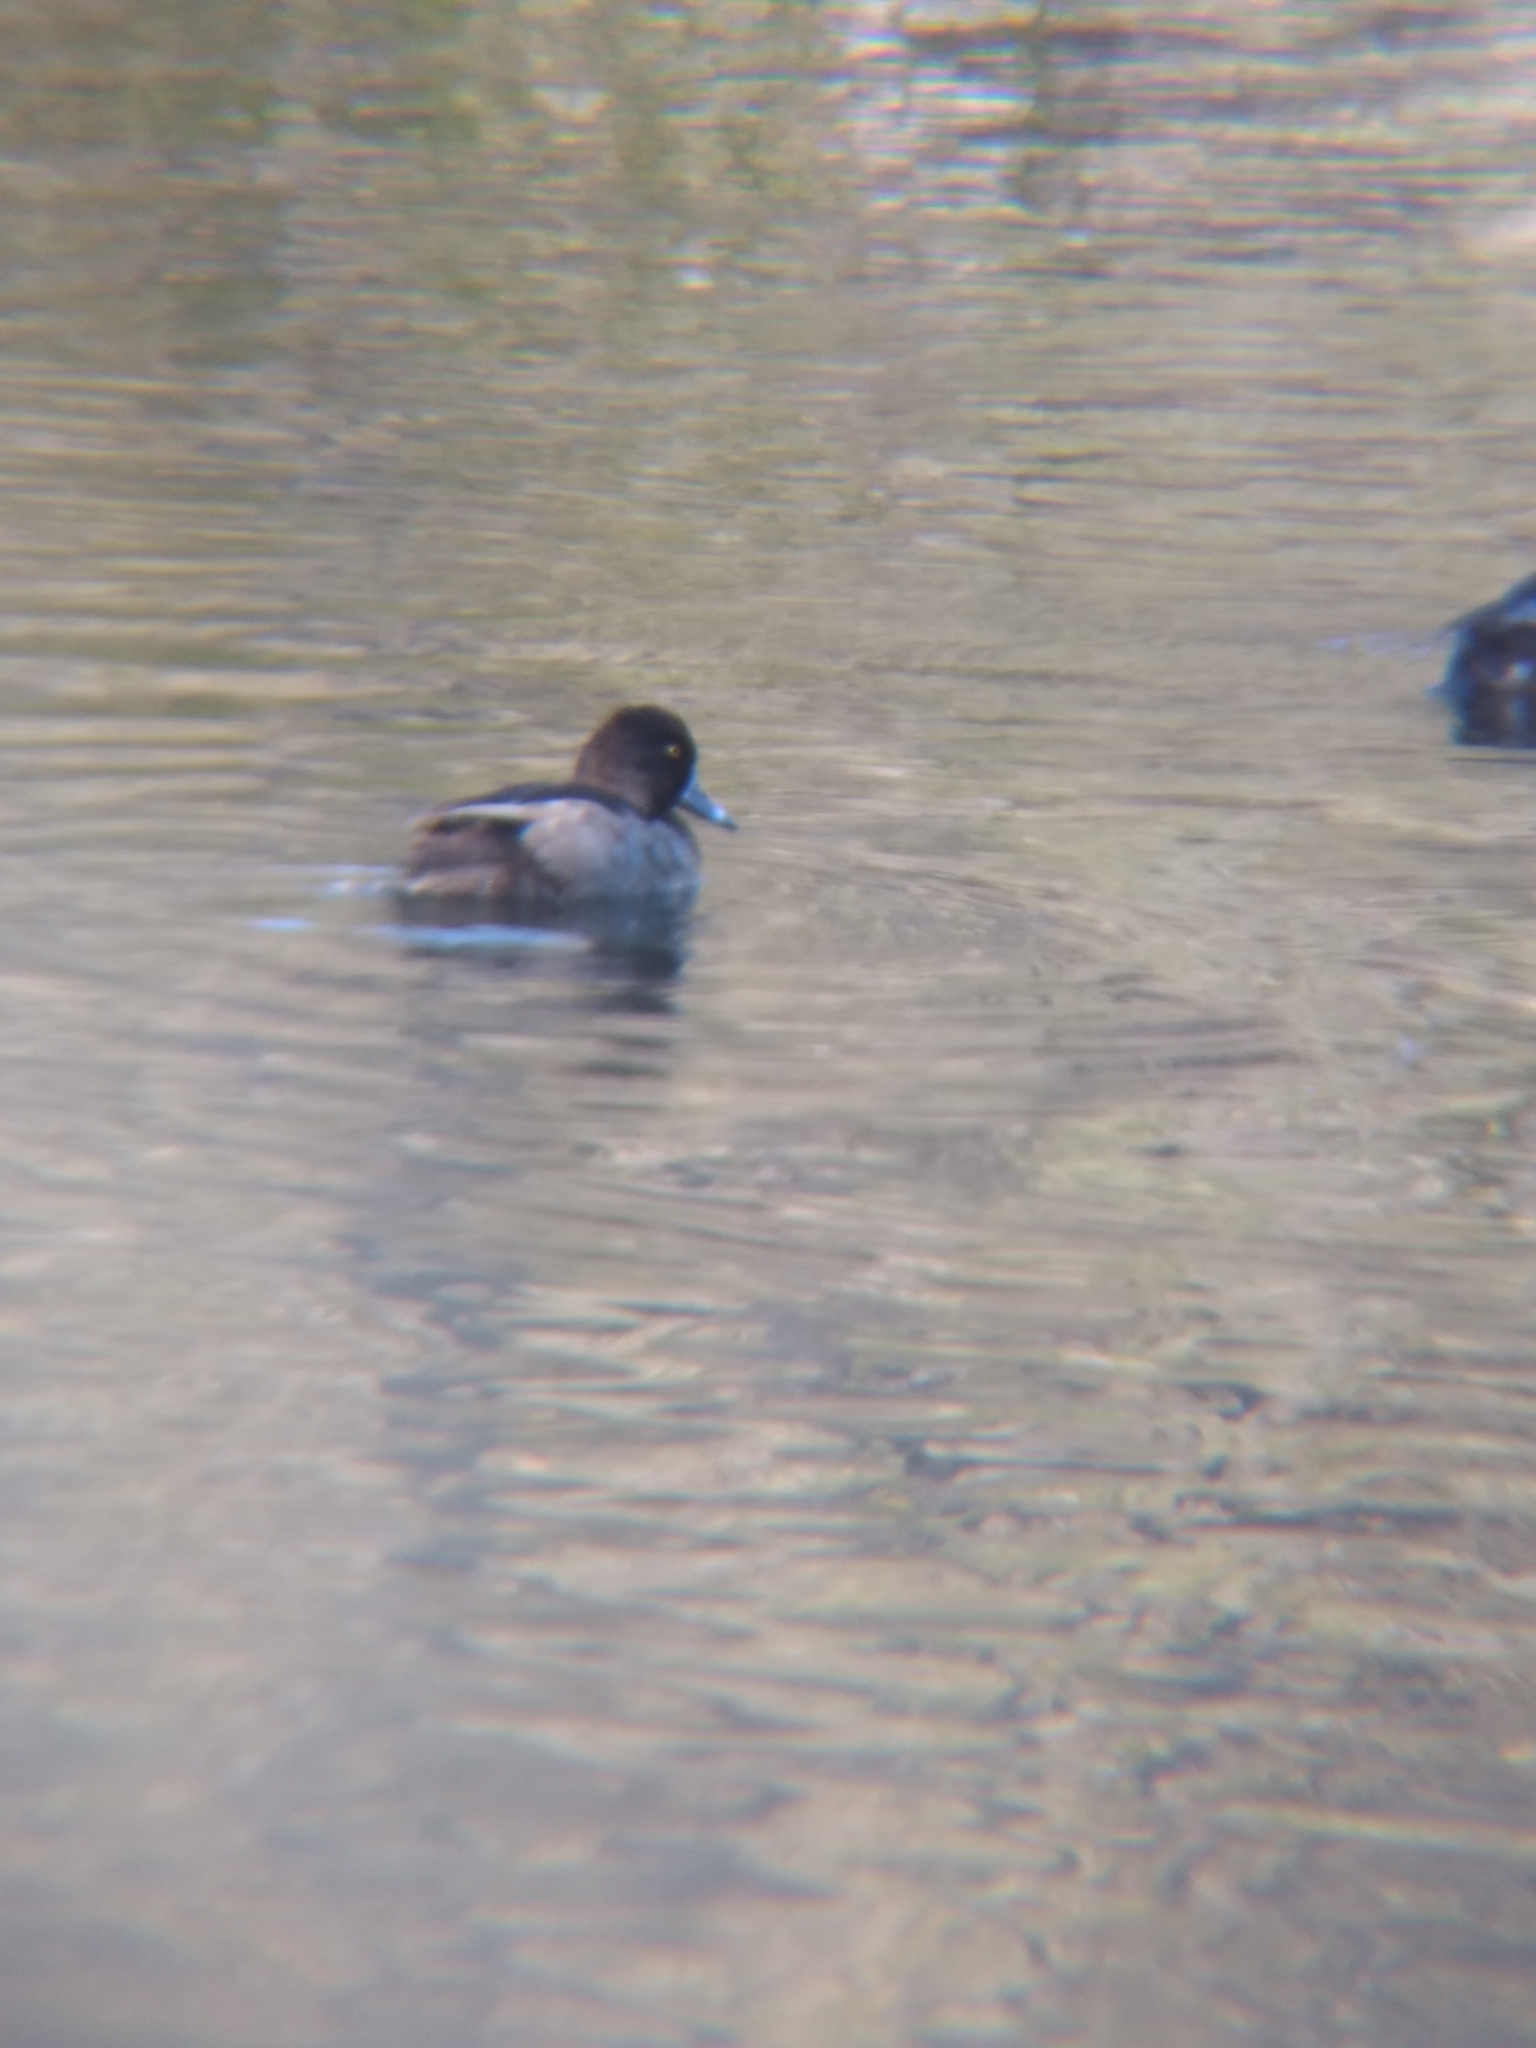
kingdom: Animalia
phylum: Chordata
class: Aves
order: Anseriformes
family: Anatidae
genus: Aythya
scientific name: Aythya collaris
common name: Ring-necked duck
